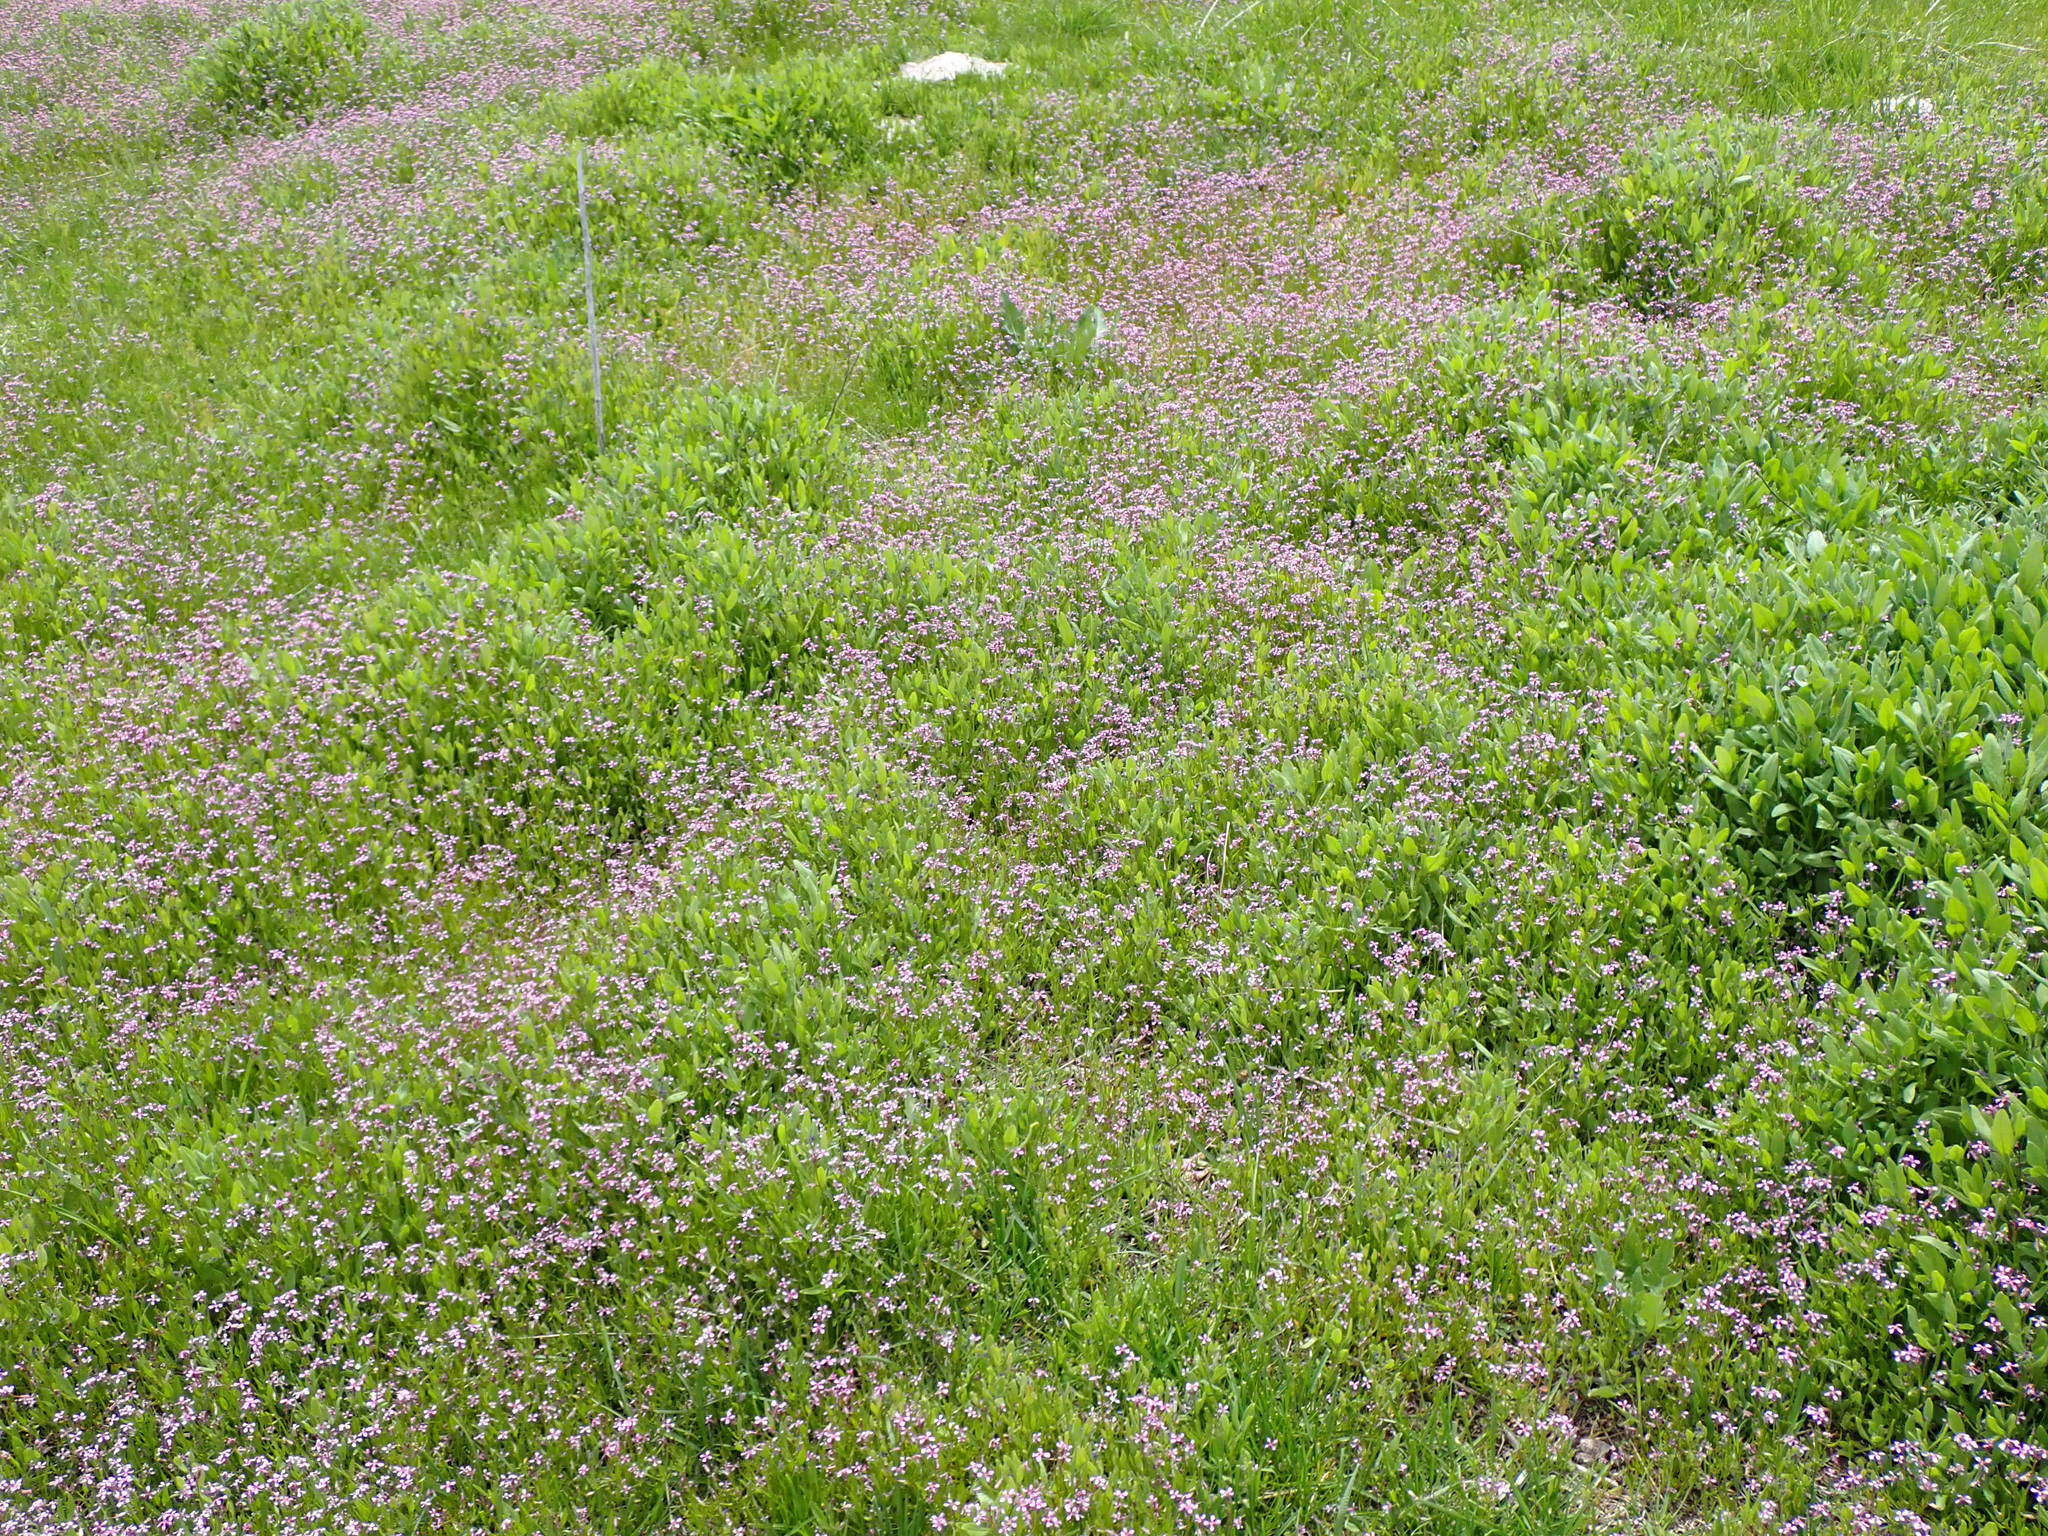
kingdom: Plantae
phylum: Tracheophyta
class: Magnoliopsida
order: Brassicales
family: Brassicaceae
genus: Chorispora
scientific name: Chorispora tenella
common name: Crossflower
